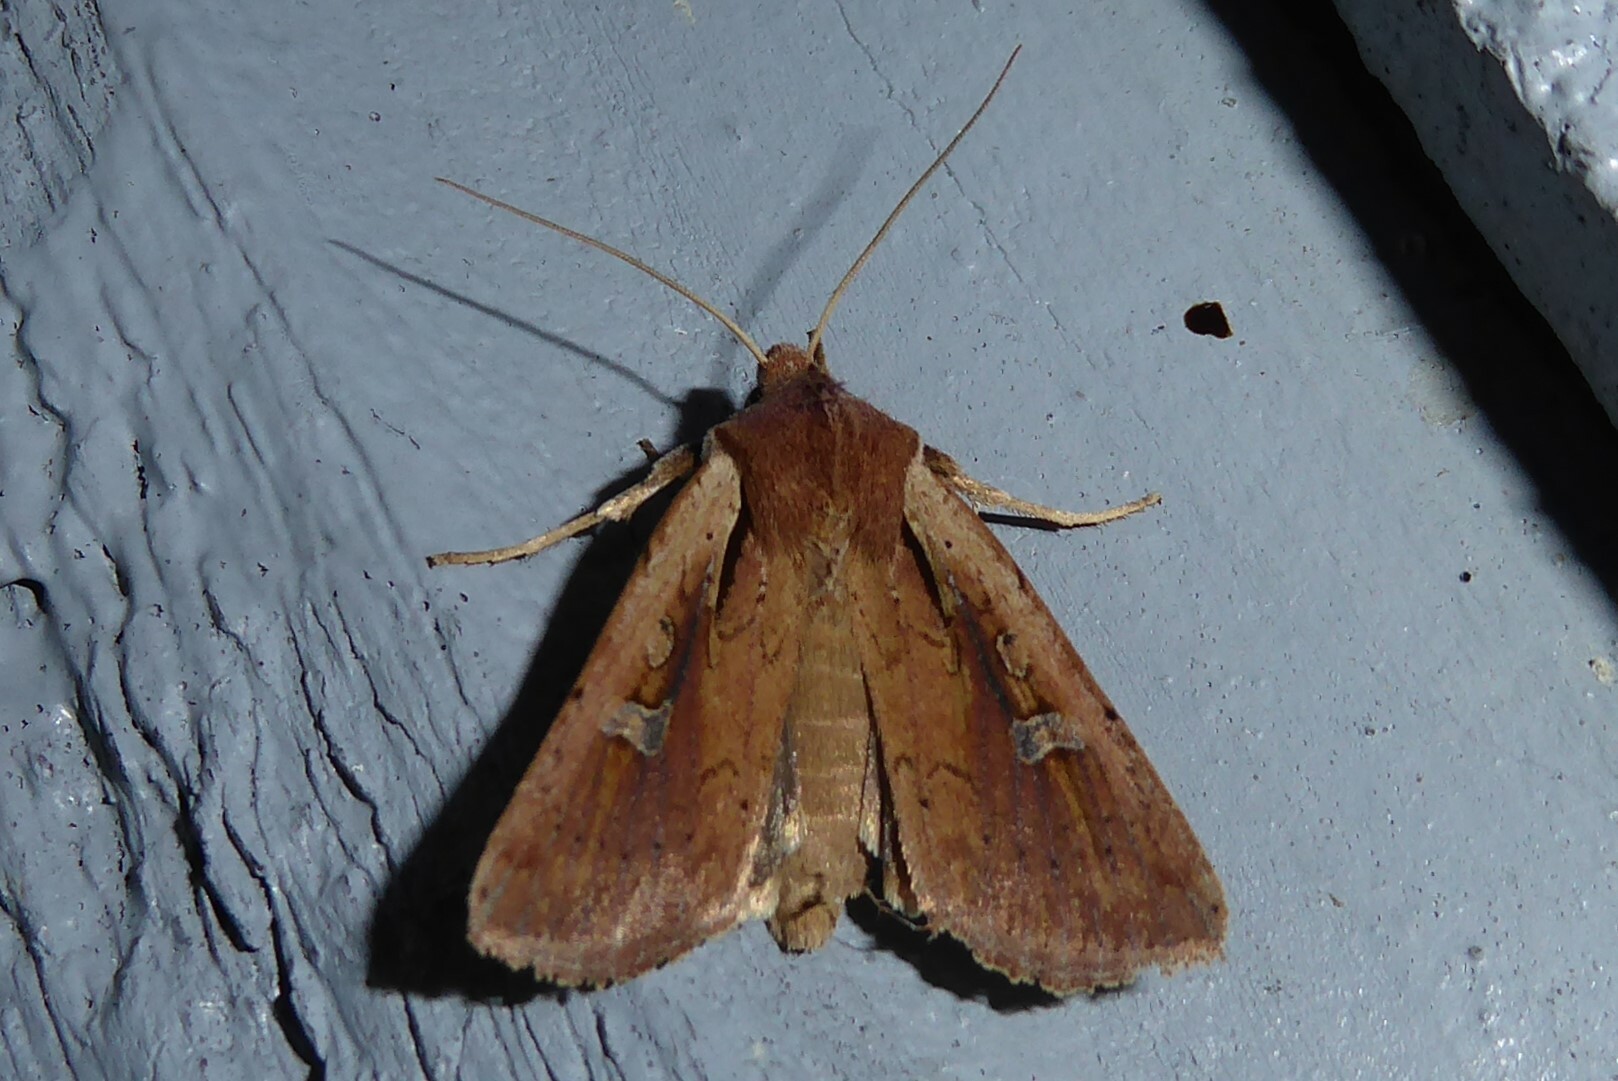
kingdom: Animalia
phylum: Arthropoda
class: Insecta
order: Lepidoptera
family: Noctuidae
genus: Ichneutica
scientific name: Ichneutica atristriga
